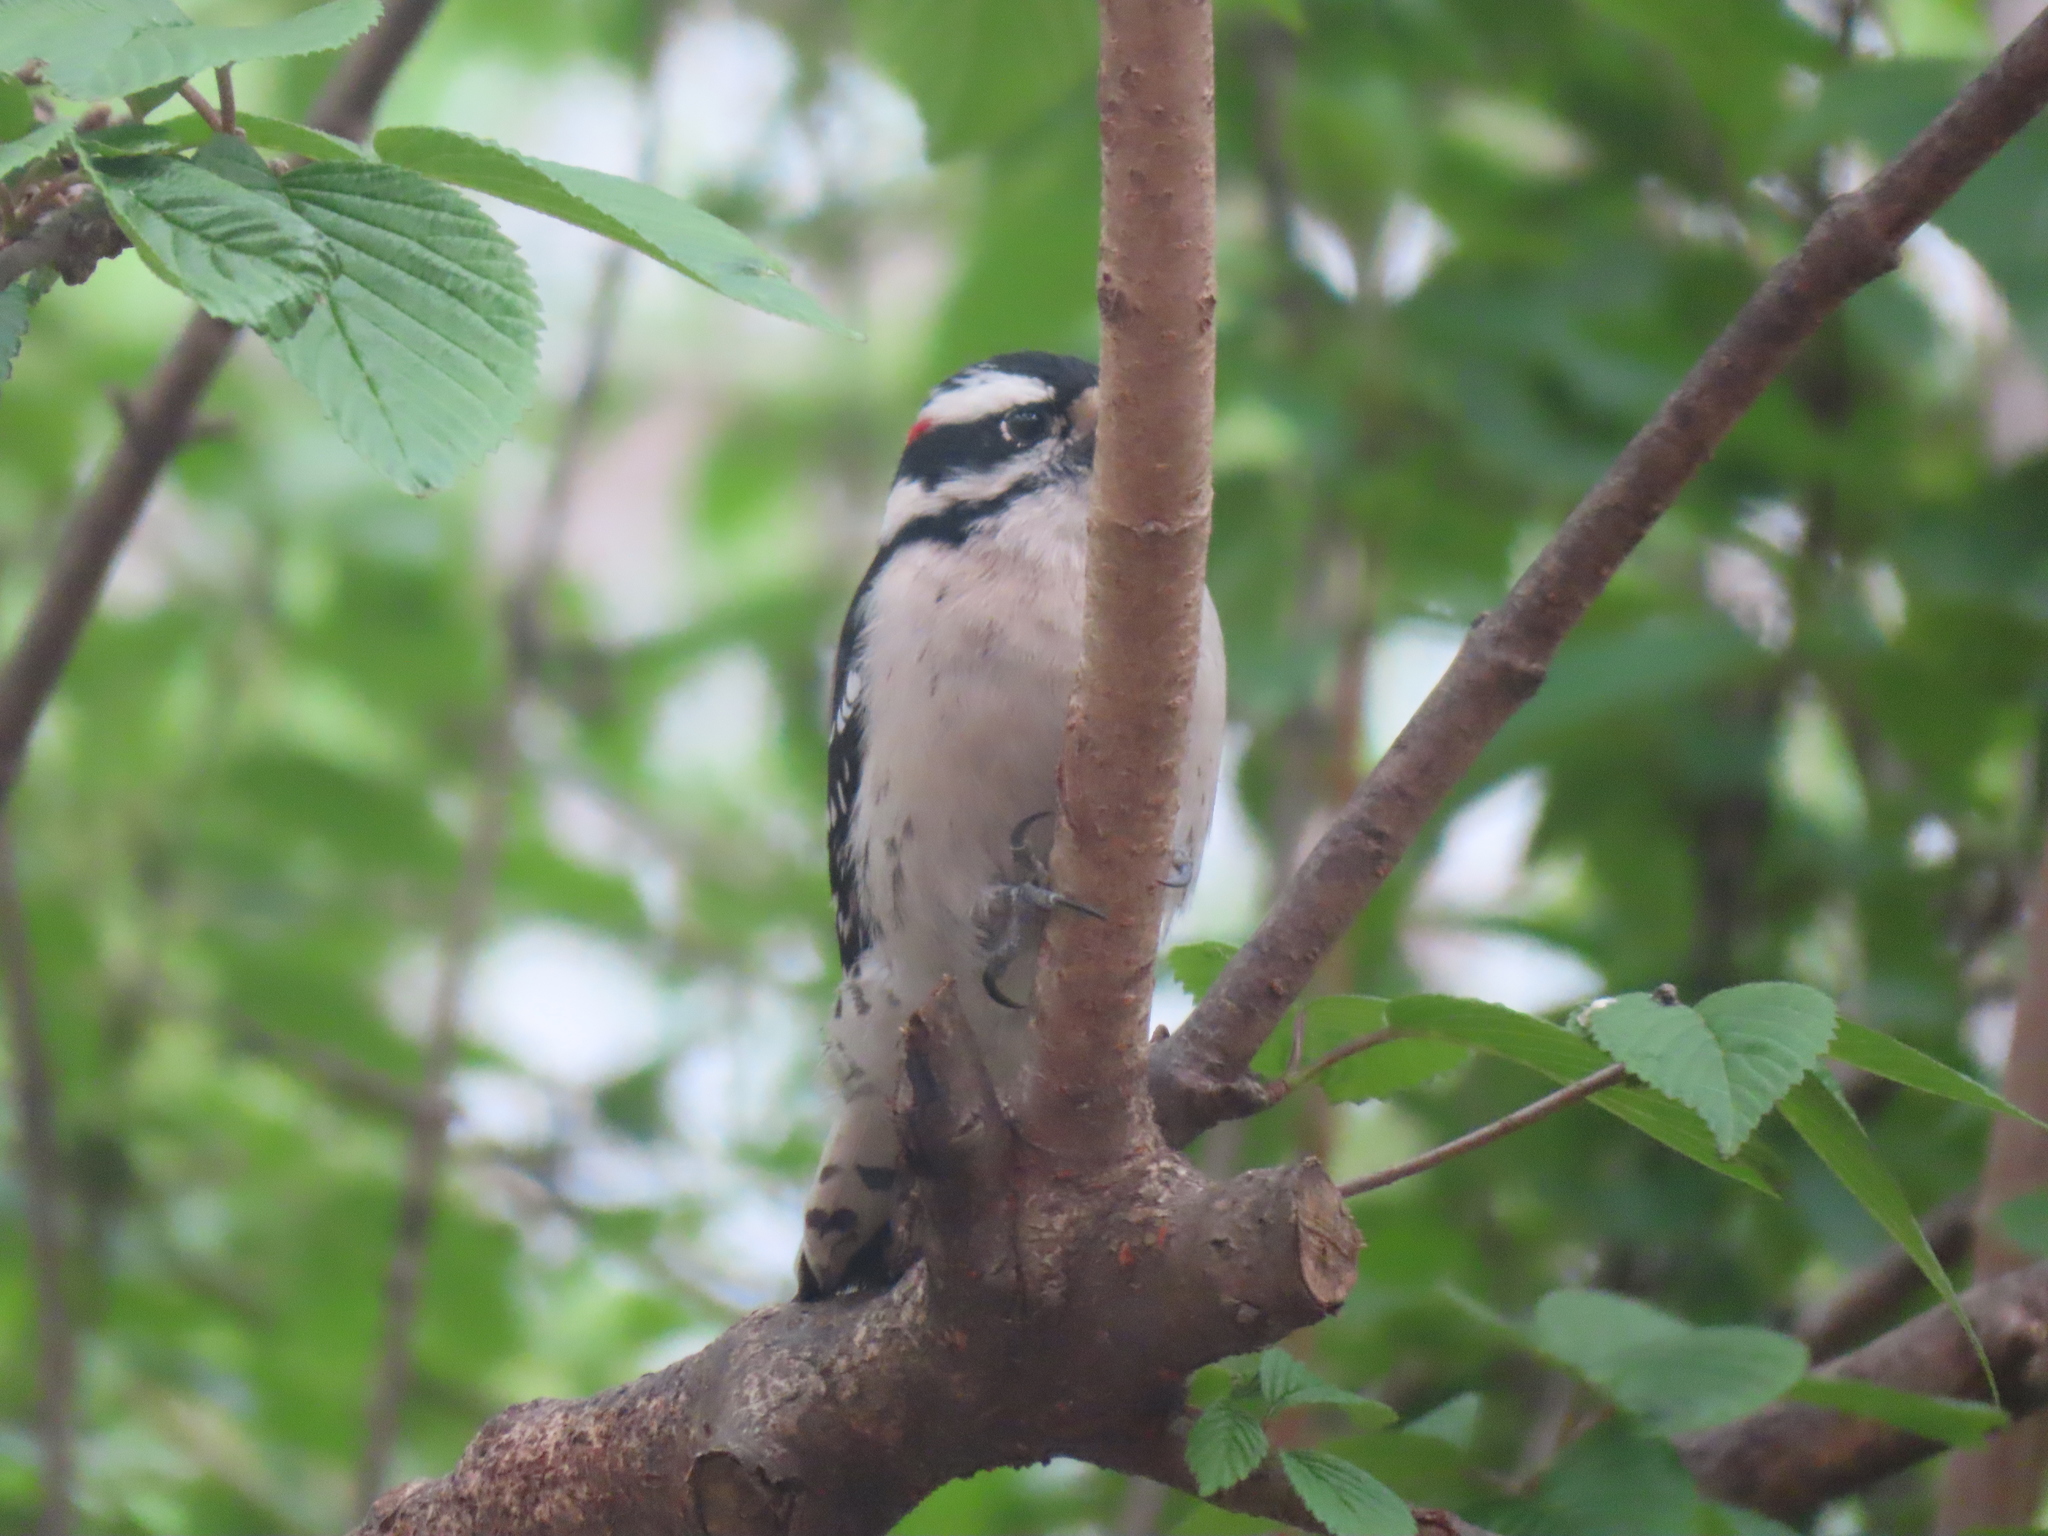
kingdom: Animalia
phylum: Chordata
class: Aves
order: Piciformes
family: Picidae
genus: Dryobates
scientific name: Dryobates pubescens
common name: Downy woodpecker
